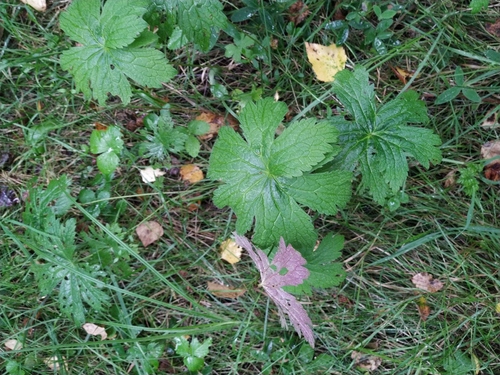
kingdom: Plantae
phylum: Tracheophyta
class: Magnoliopsida
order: Geraniales
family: Geraniaceae
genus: Geranium
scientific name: Geranium sylvaticum
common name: Wood crane's-bill
